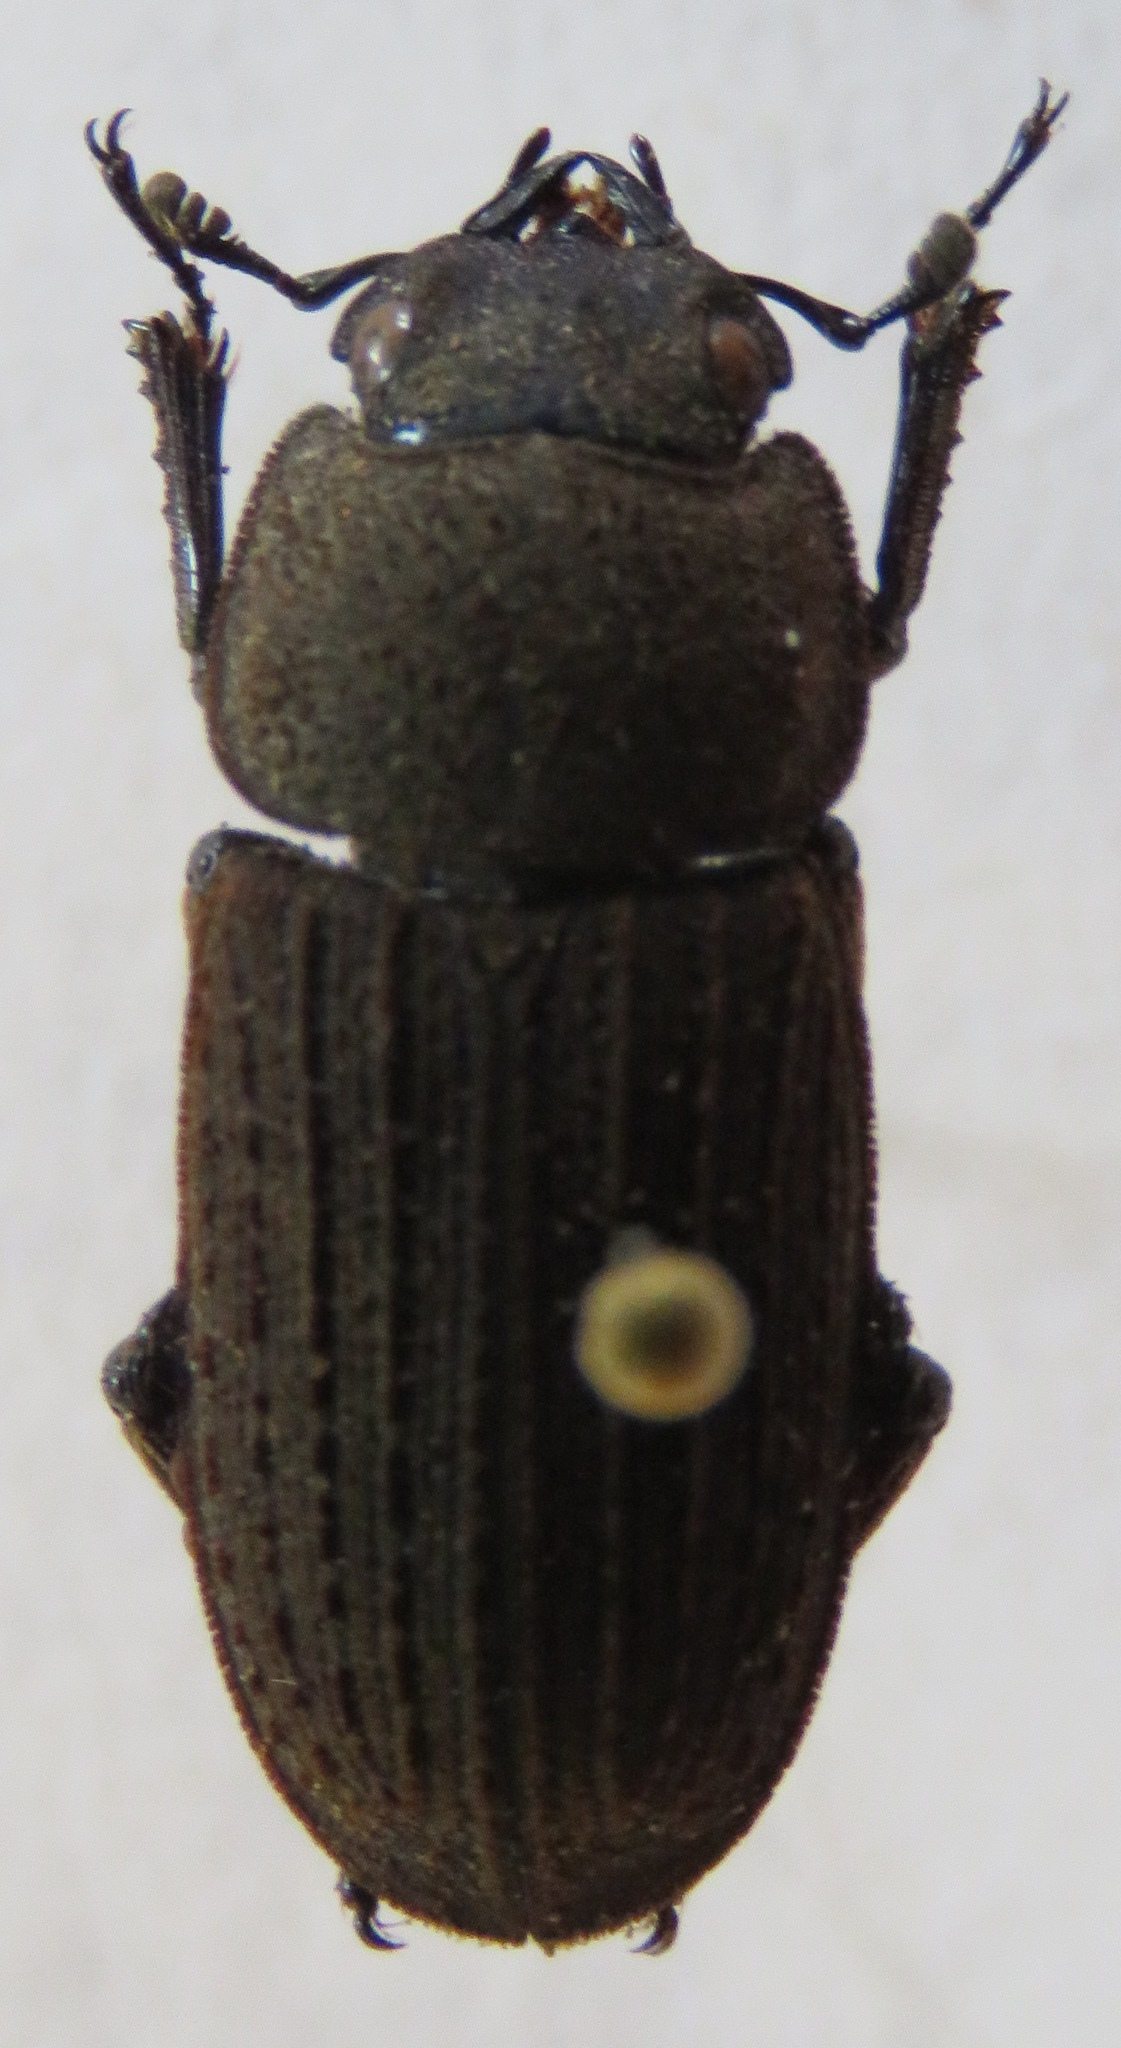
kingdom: Animalia
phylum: Arthropoda
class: Insecta
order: Coleoptera
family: Lucanidae
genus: Dorcus
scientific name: Dorcus
